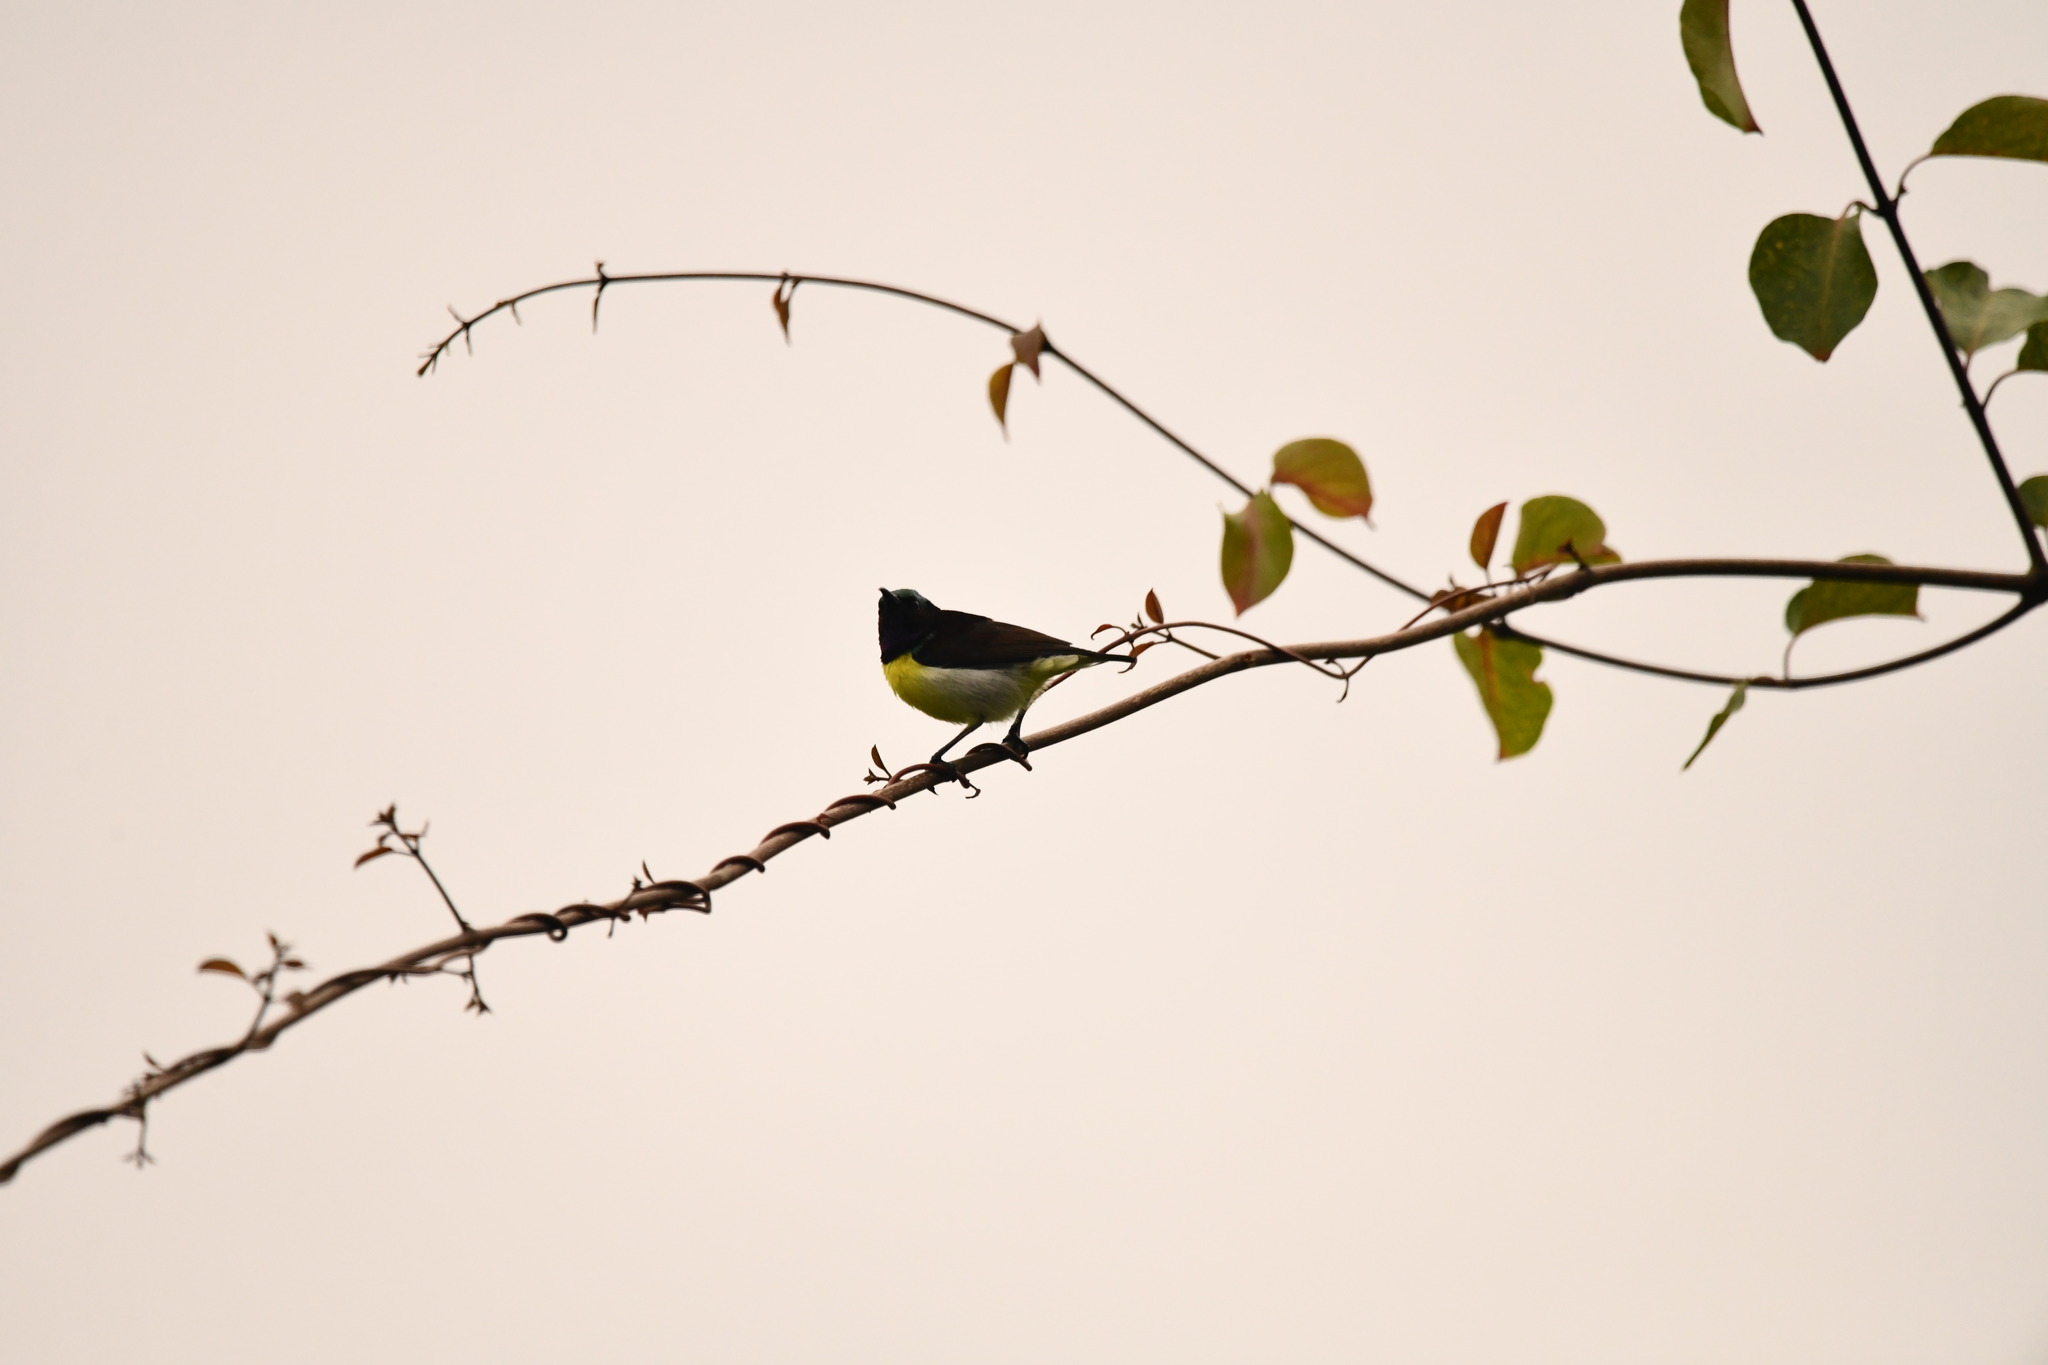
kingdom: Animalia
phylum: Chordata
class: Aves
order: Passeriformes
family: Nectariniidae
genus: Leptocoma
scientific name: Leptocoma zeylonica
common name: Purple-rumped sunbird
